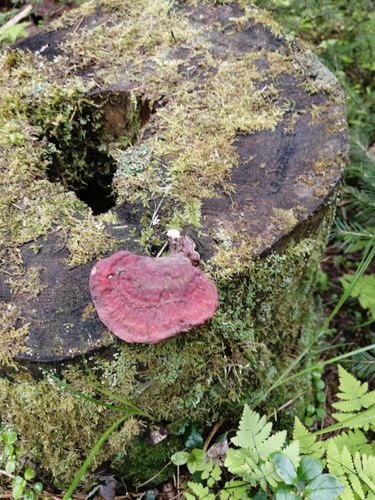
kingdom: Fungi
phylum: Basidiomycota
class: Agaricomycetes
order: Polyporales
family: Polyporaceae
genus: Ganoderma
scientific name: Ganoderma lucidum
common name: Lacquered bracket
